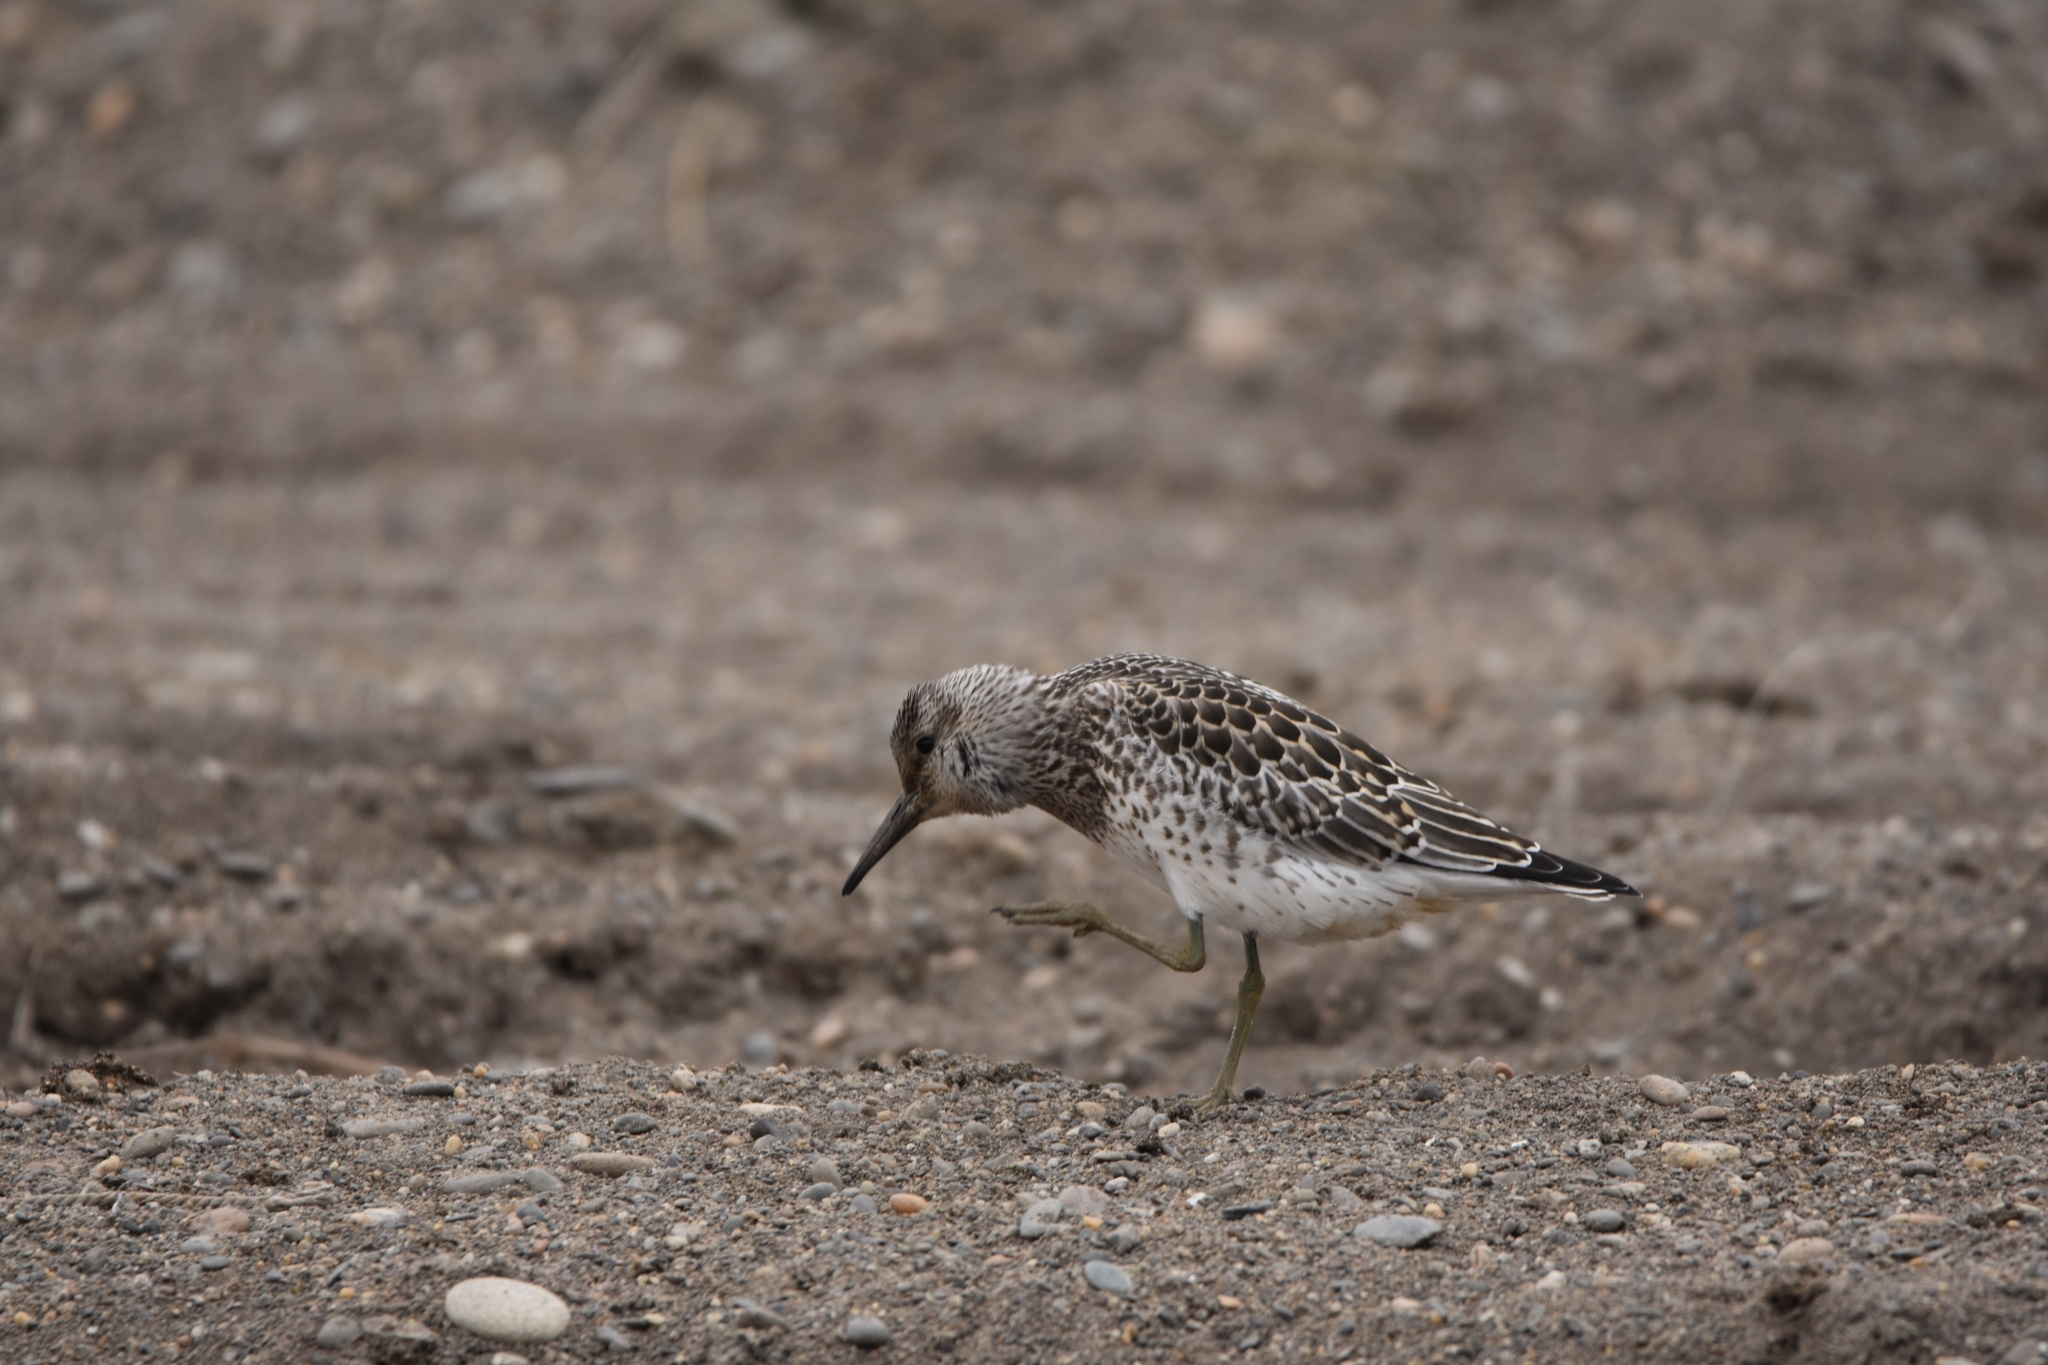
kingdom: Animalia
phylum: Chordata
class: Aves
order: Charadriiformes
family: Scolopacidae
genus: Calidris
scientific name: Calidris tenuirostris
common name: Great knot
